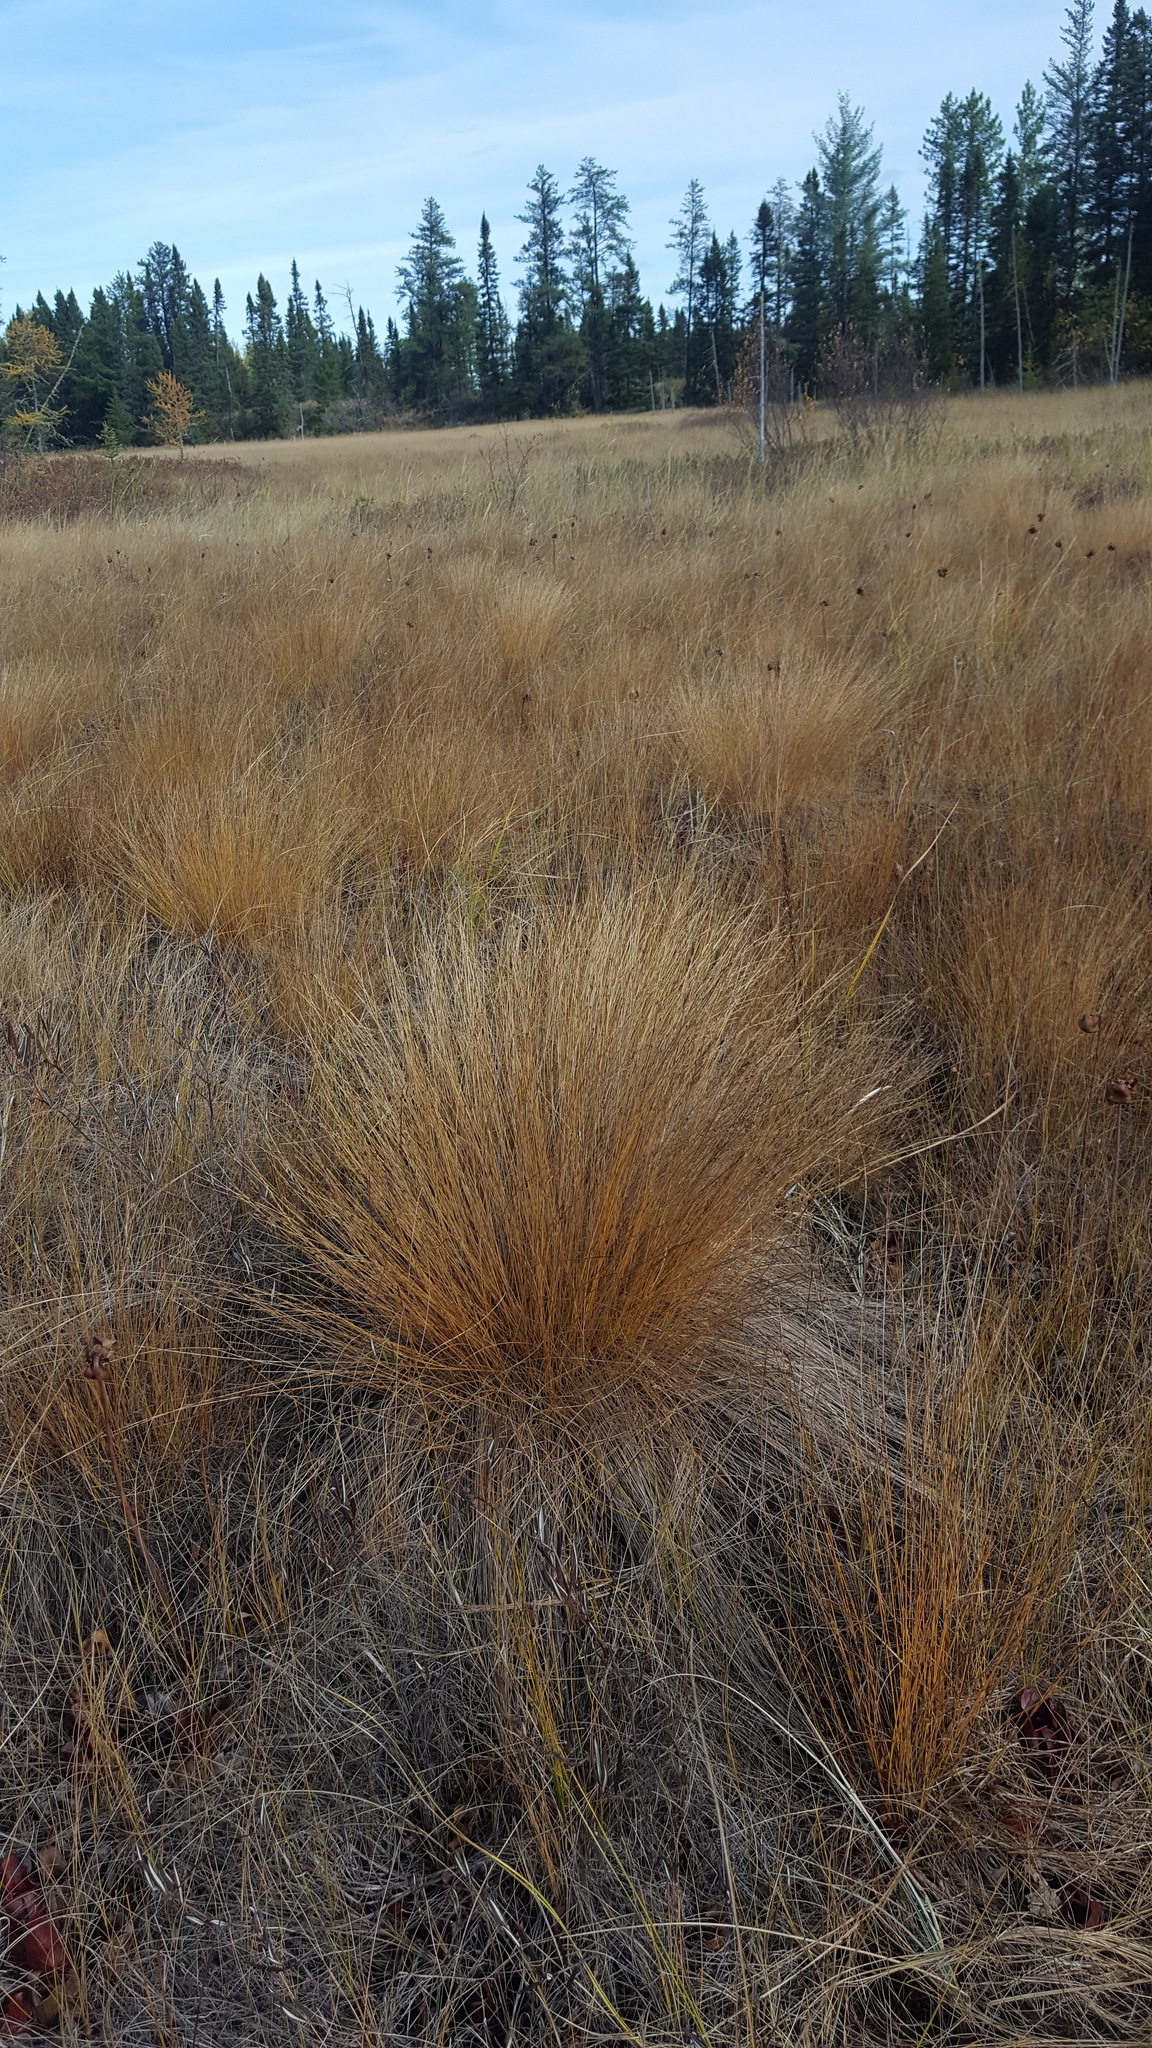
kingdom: Plantae
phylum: Tracheophyta
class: Liliopsida
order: Poales
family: Cyperaceae
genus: Eriophorum
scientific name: Eriophorum vaginatum
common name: Hare's-tail cottongrass
